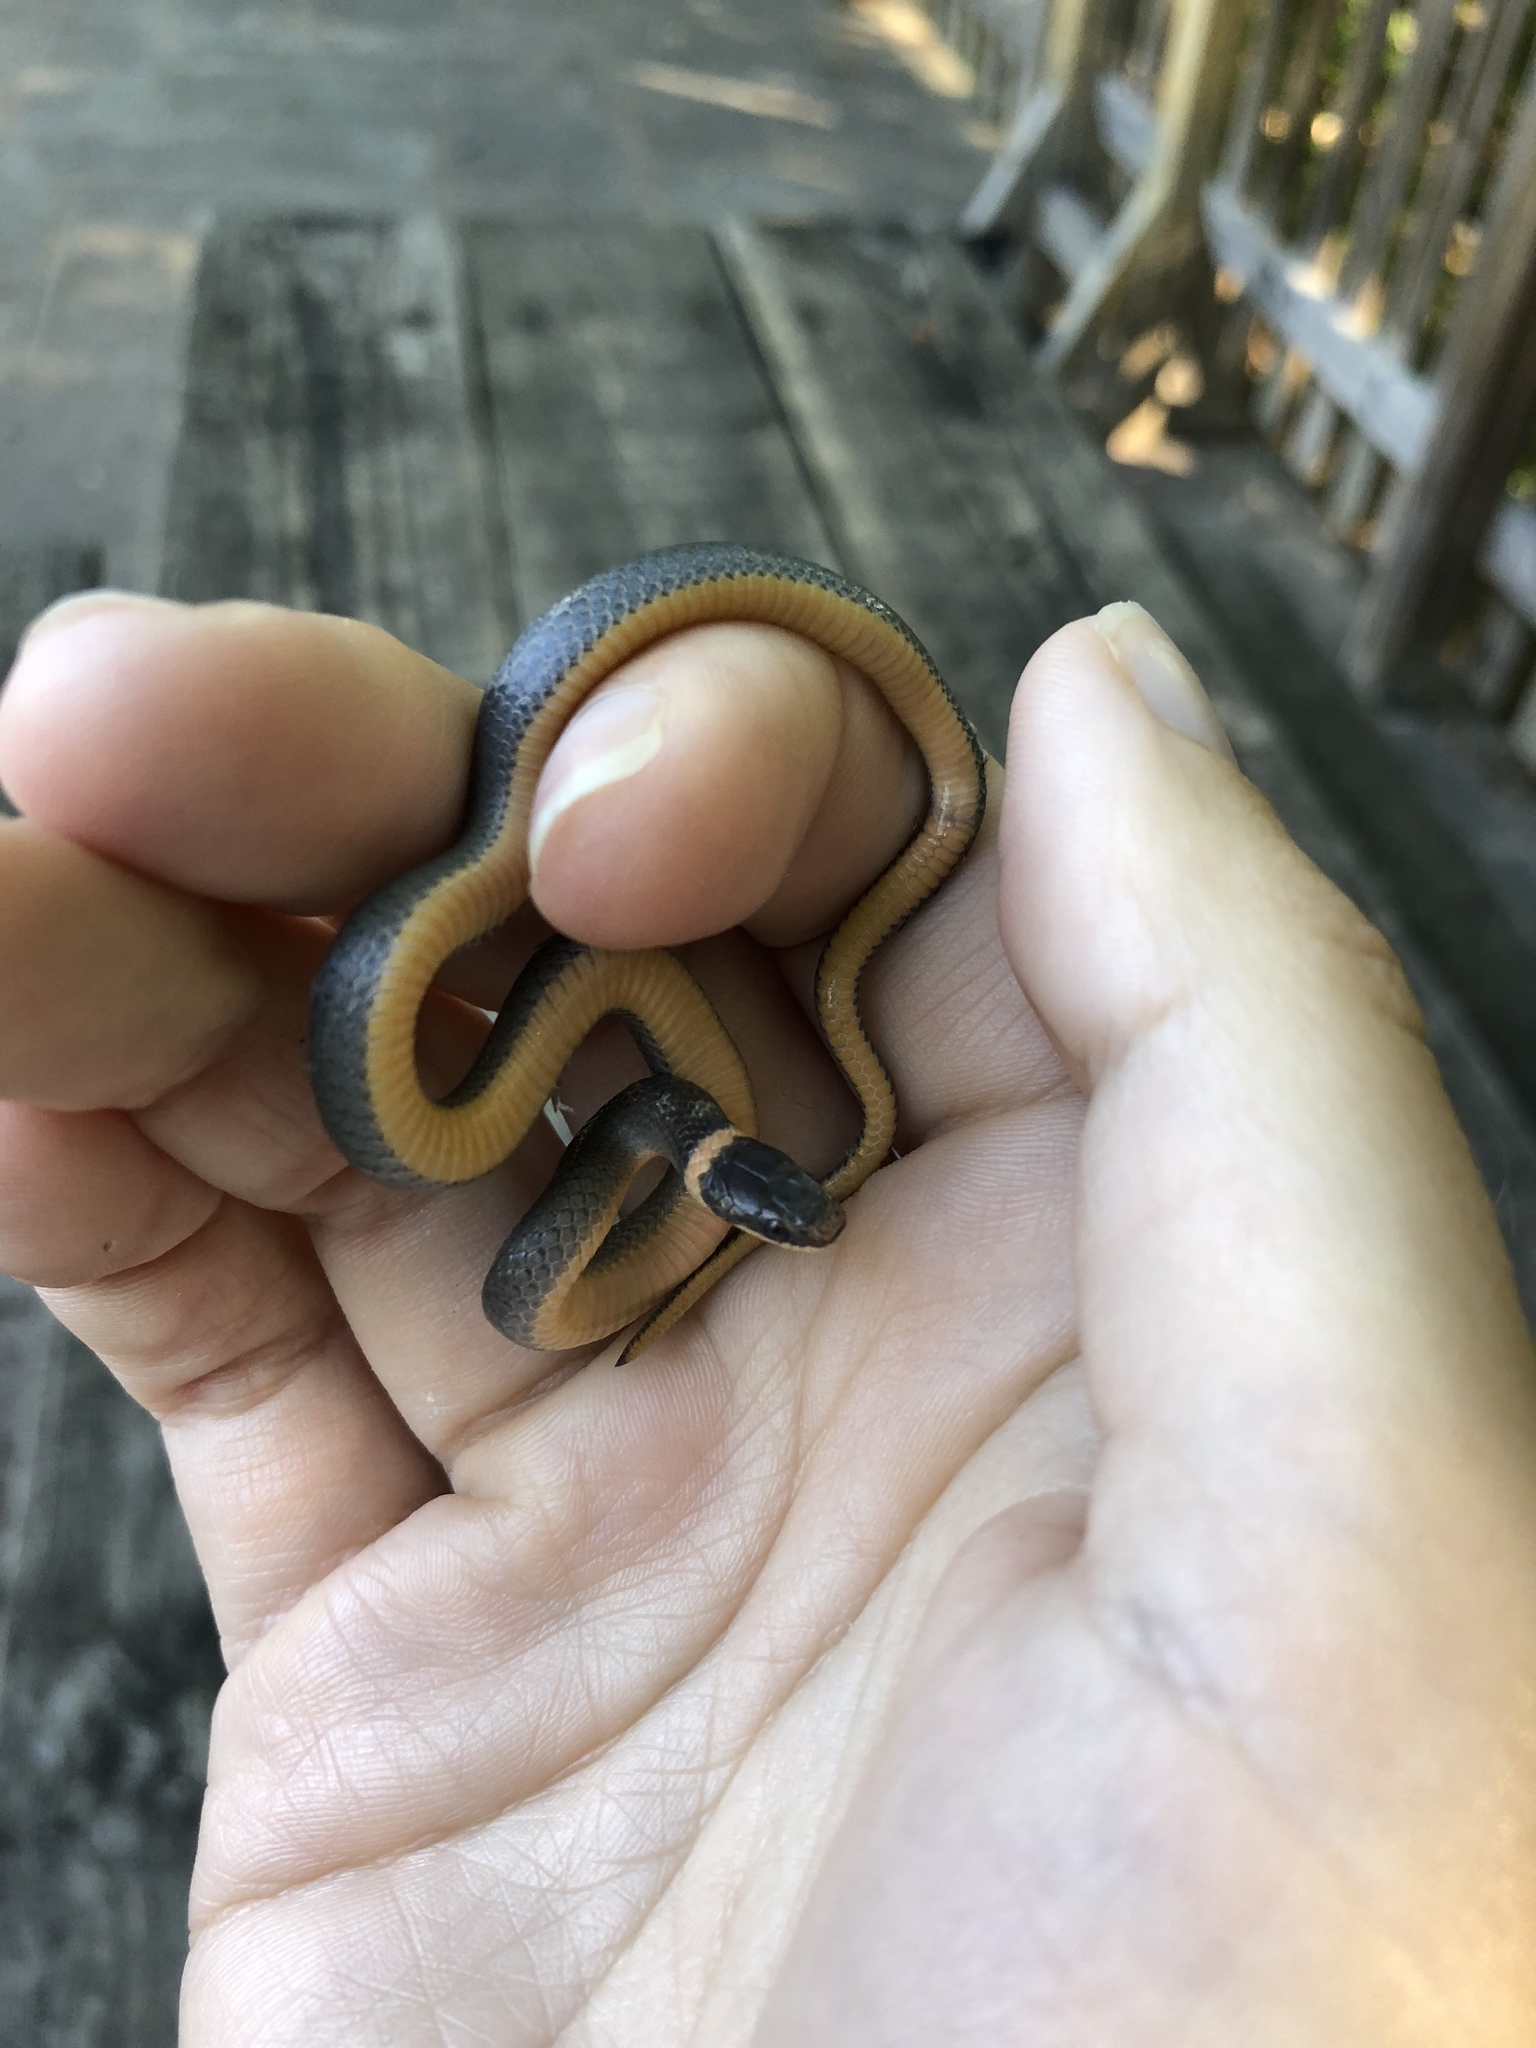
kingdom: Animalia
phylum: Chordata
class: Squamata
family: Colubridae
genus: Diadophis
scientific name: Diadophis punctatus
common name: Ringneck snake
